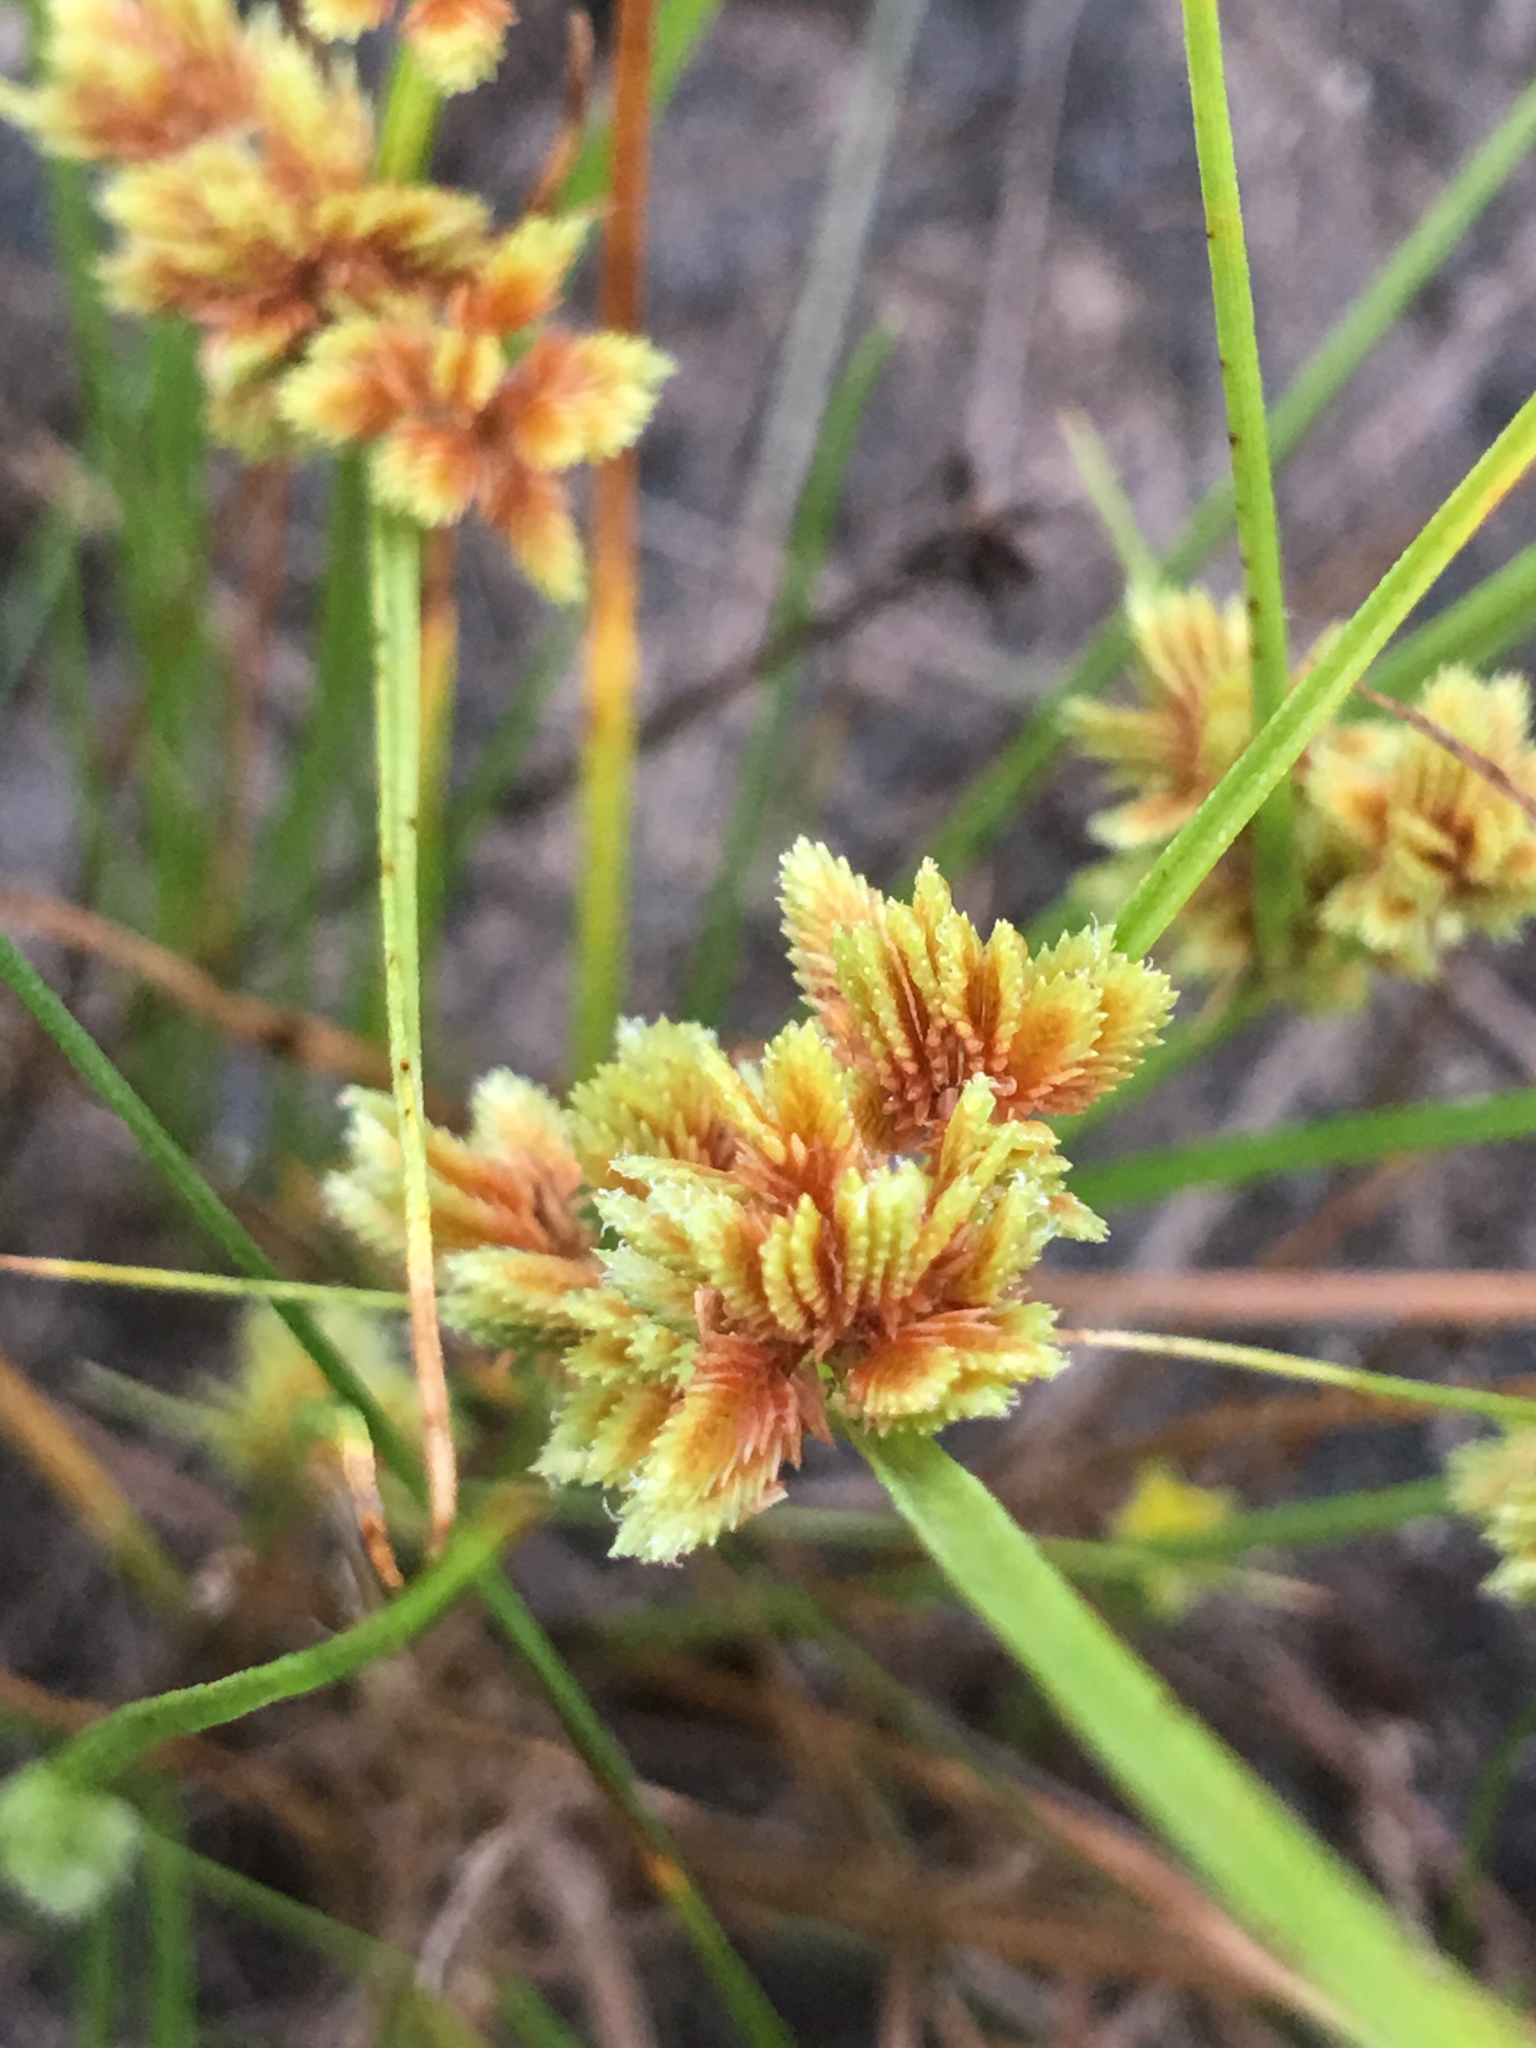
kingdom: Plantae
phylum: Tracheophyta
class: Liliopsida
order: Poales
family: Cyperaceae
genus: Cyperus
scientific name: Cyperus acuminatus
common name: Short-pointed cyperus
